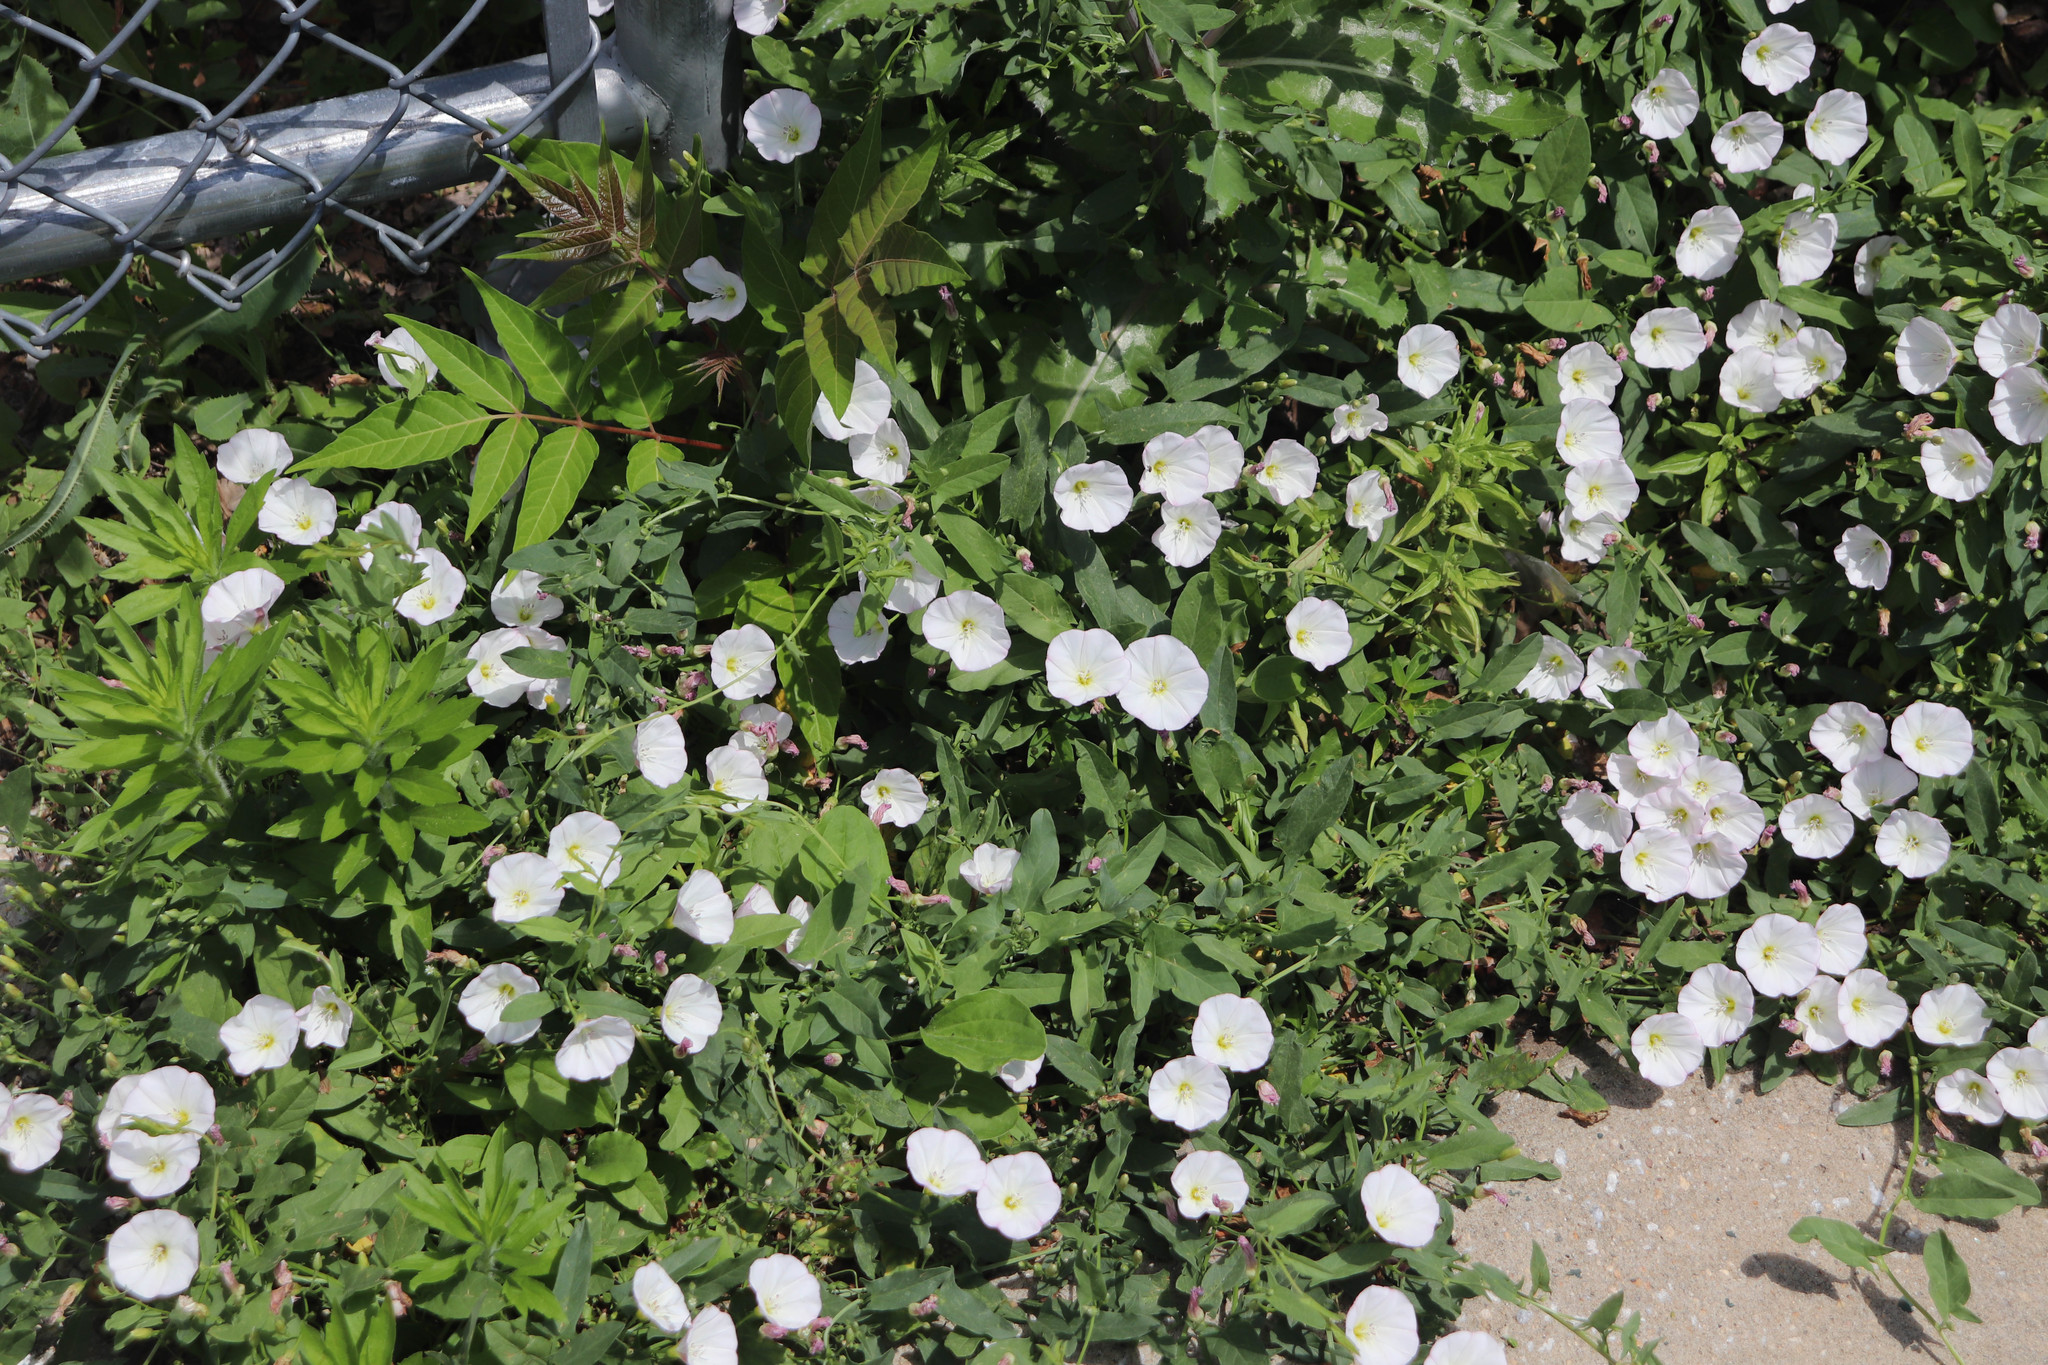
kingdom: Plantae
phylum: Tracheophyta
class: Magnoliopsida
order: Solanales
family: Convolvulaceae
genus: Convolvulus
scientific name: Convolvulus arvensis
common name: Field bindweed
